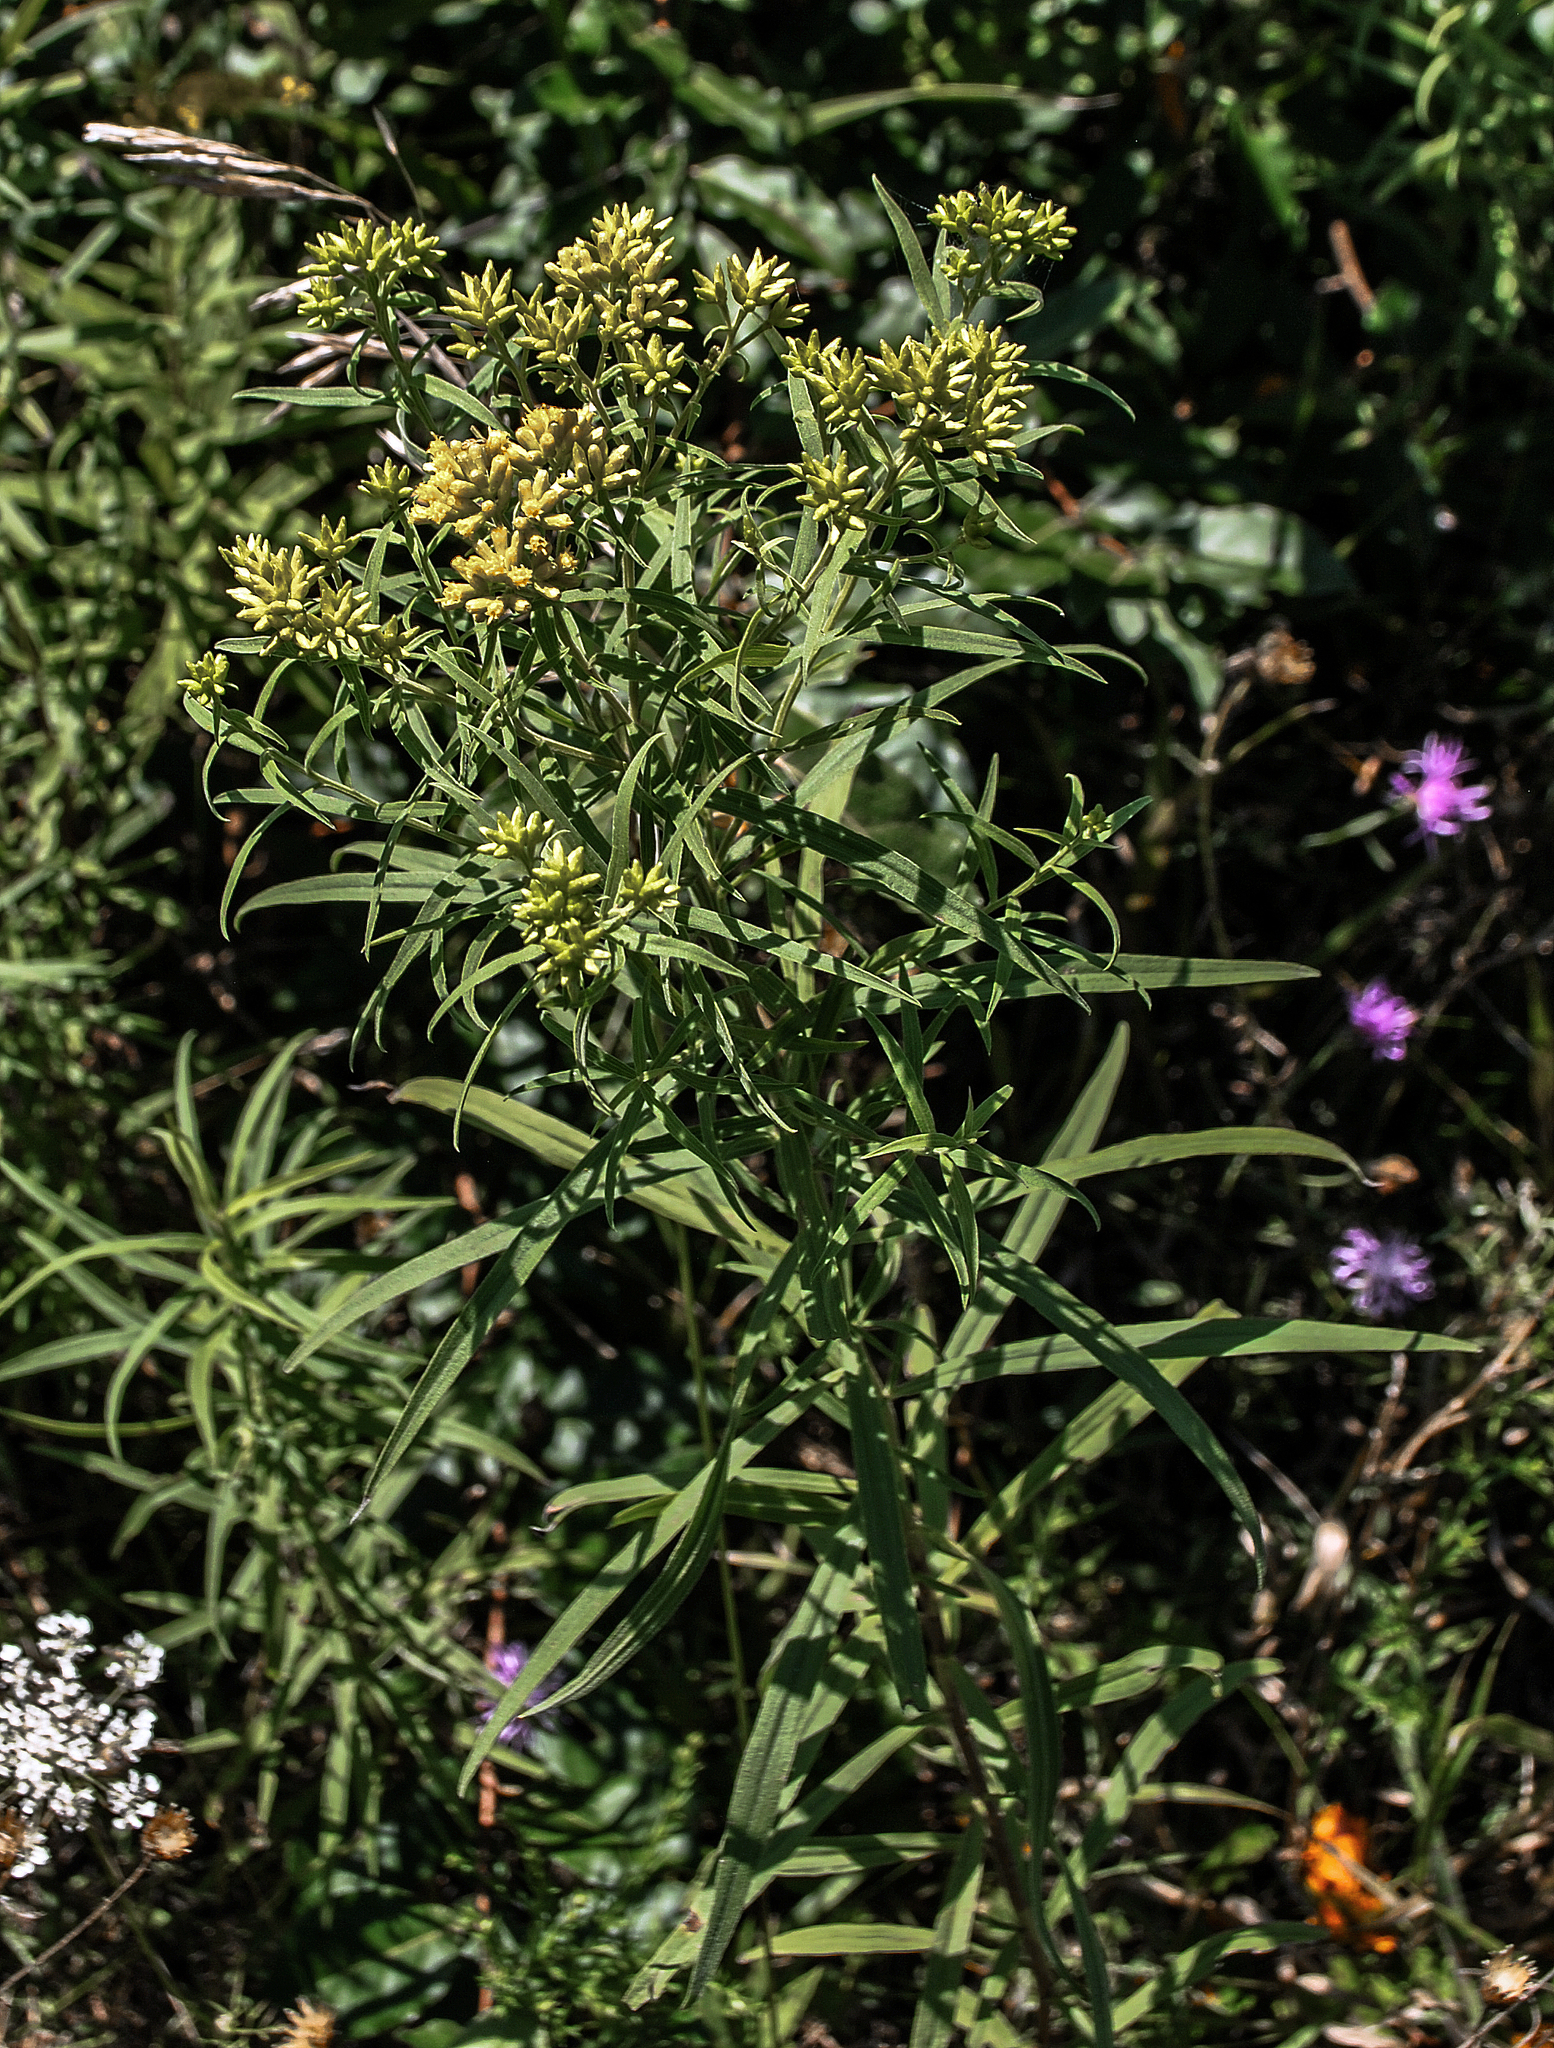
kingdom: Plantae
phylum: Tracheophyta
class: Magnoliopsida
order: Asterales
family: Asteraceae
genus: Euthamia
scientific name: Euthamia graminifolia
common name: Common goldentop
